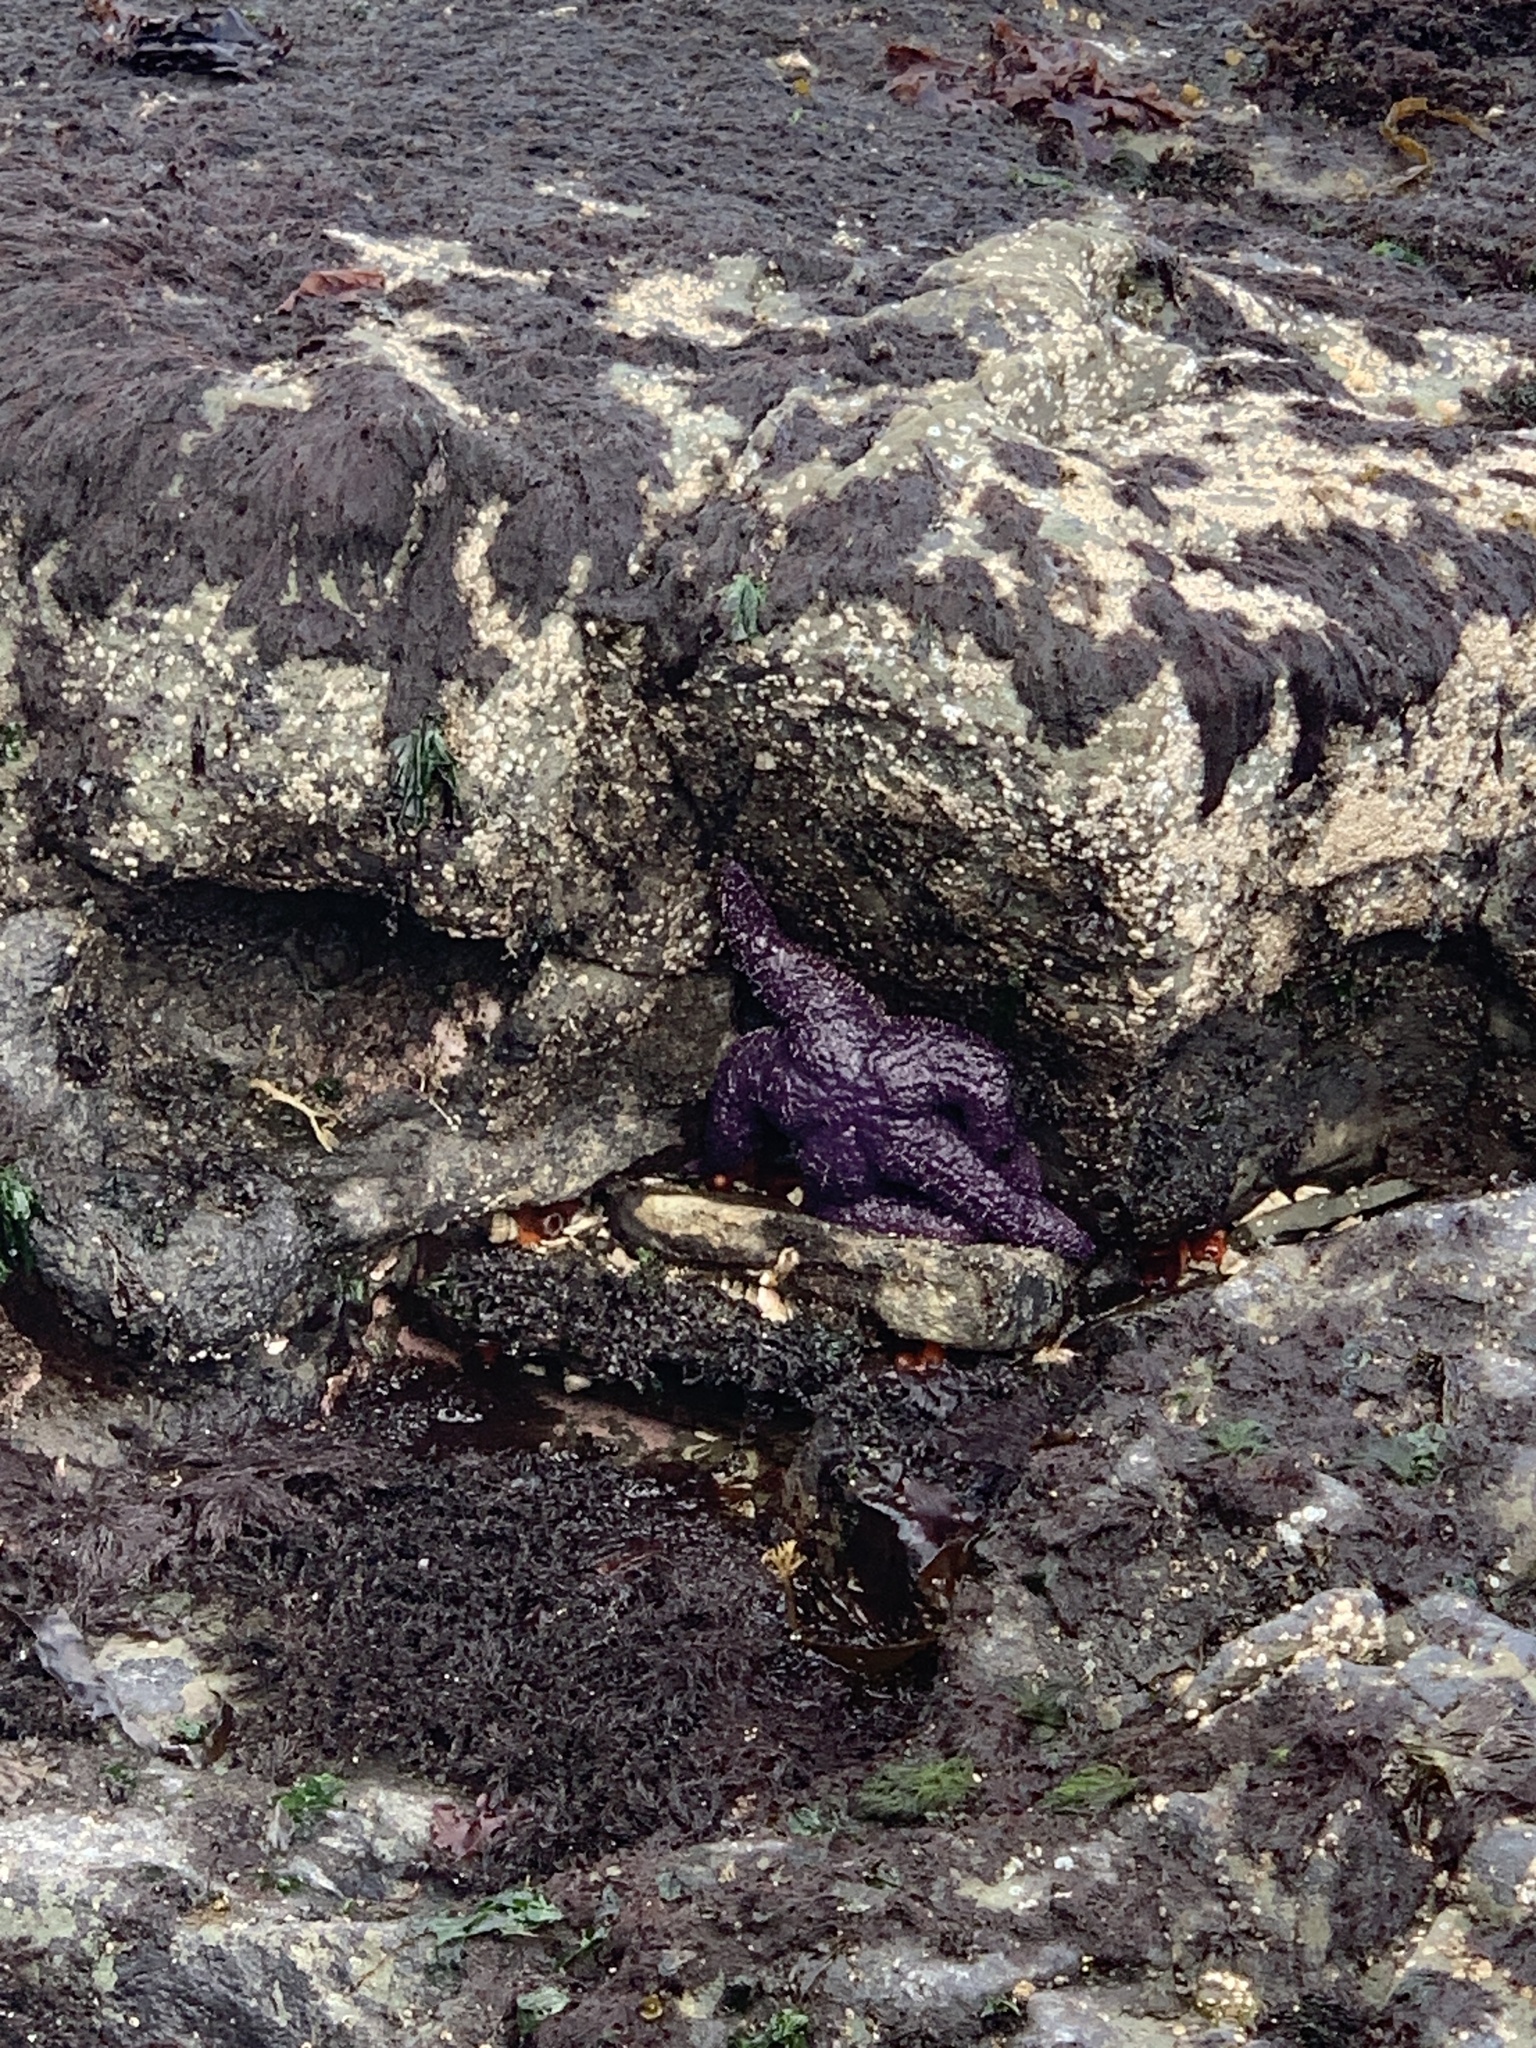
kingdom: Animalia
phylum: Echinodermata
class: Asteroidea
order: Forcipulatida
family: Asteriidae
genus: Pisaster
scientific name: Pisaster ochraceus
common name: Ochre stars
